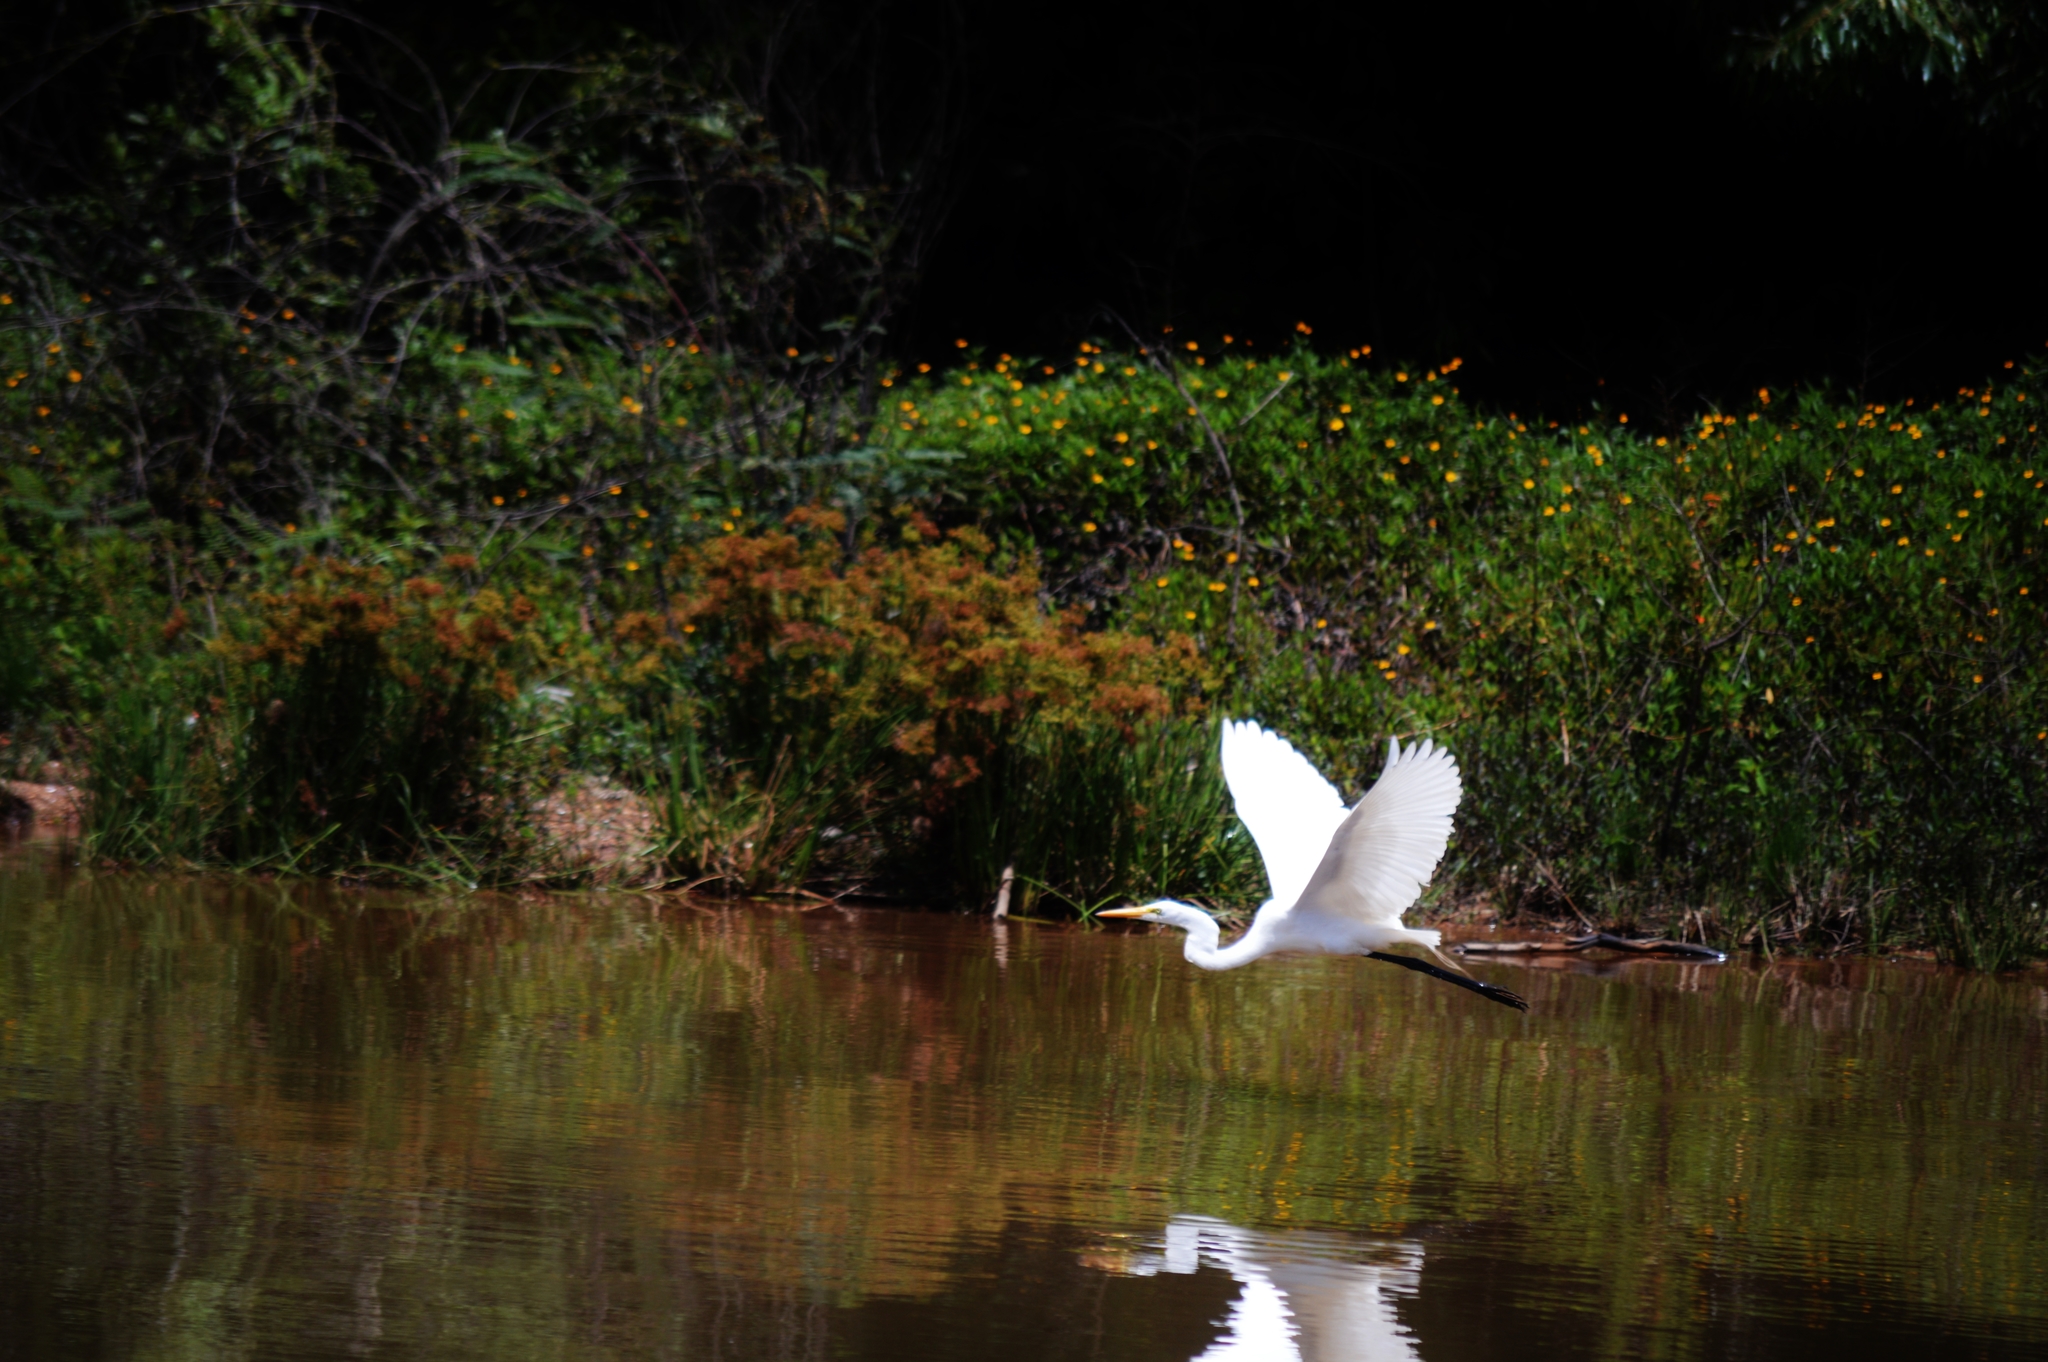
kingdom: Animalia
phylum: Chordata
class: Aves
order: Pelecaniformes
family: Ardeidae
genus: Ardea
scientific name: Ardea alba
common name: Great egret
